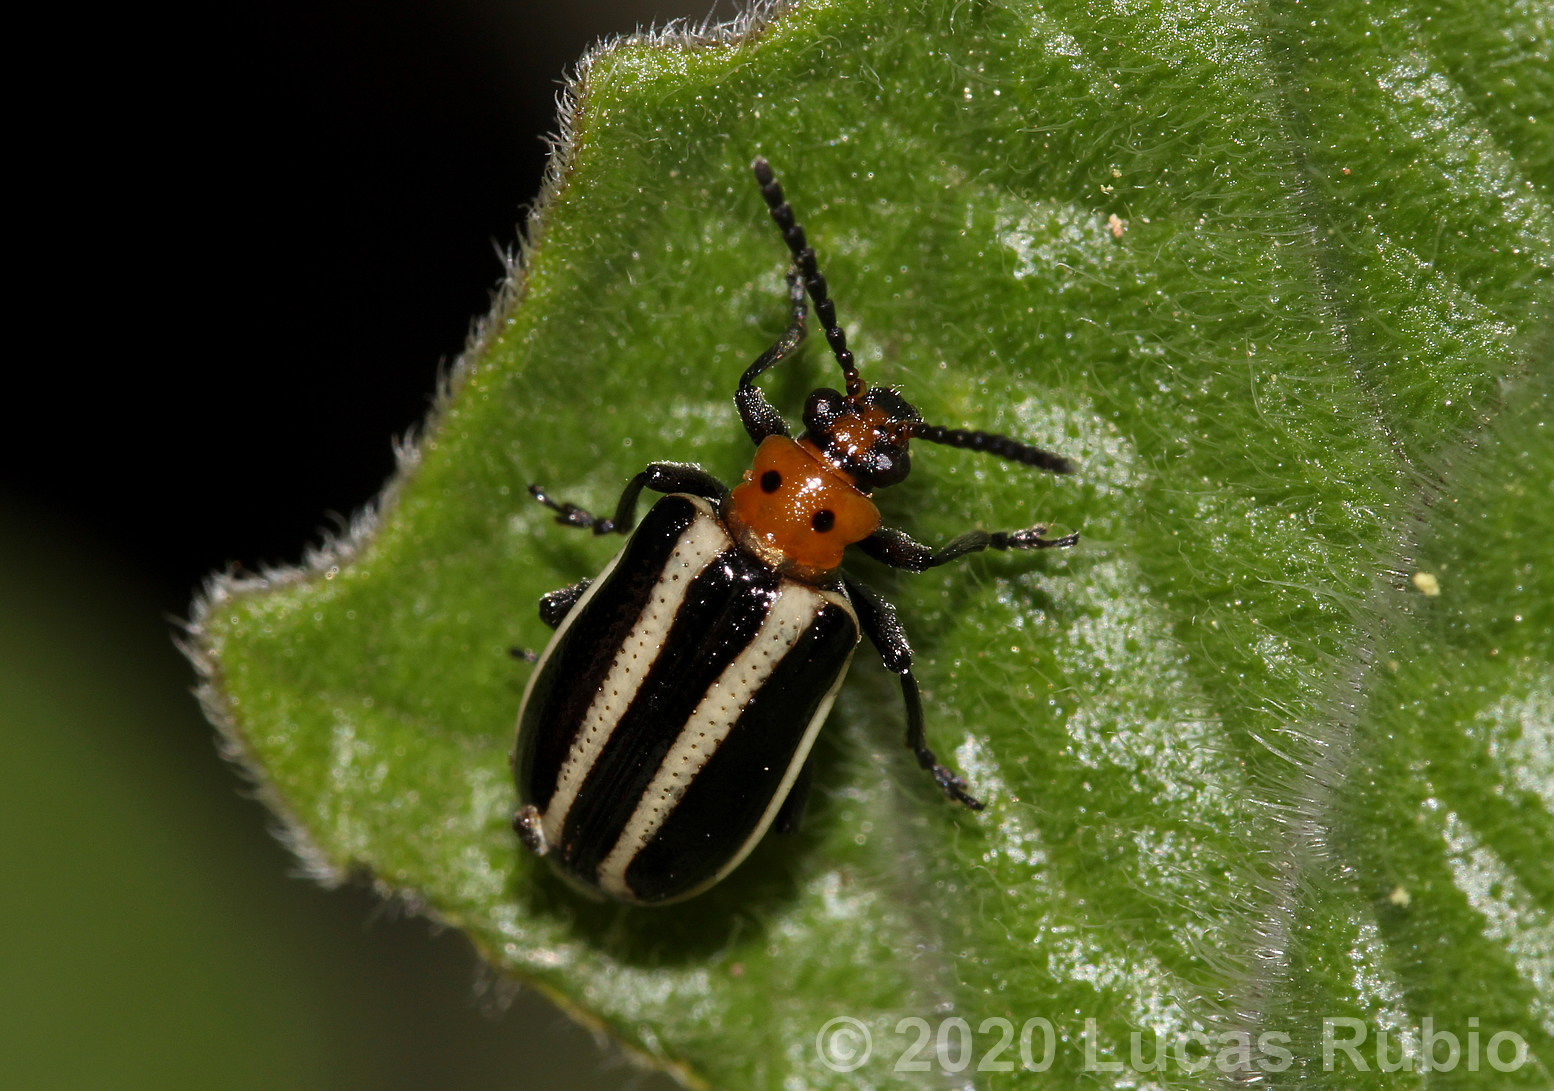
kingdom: Animalia
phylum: Arthropoda
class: Insecta
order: Coleoptera
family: Chrysomelidae
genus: Lema
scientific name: Lema bilineata
